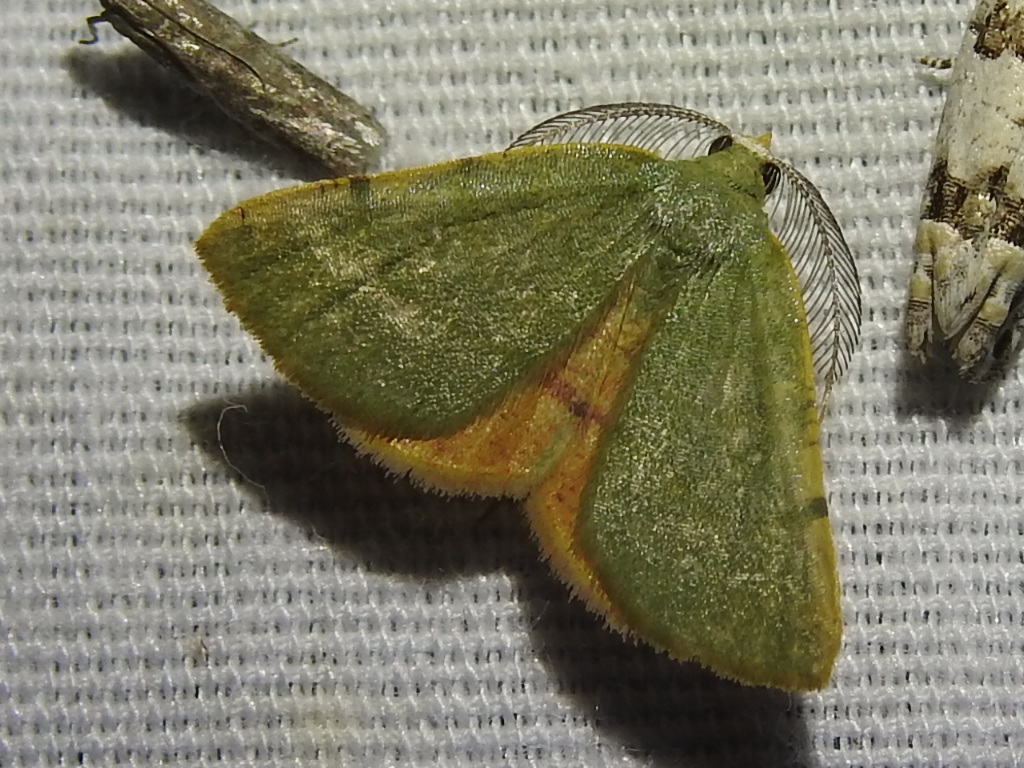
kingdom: Animalia
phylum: Arthropoda
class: Insecta
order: Lepidoptera
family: Geometridae
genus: Chloraspilates
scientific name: Chloraspilates bicoloraria
